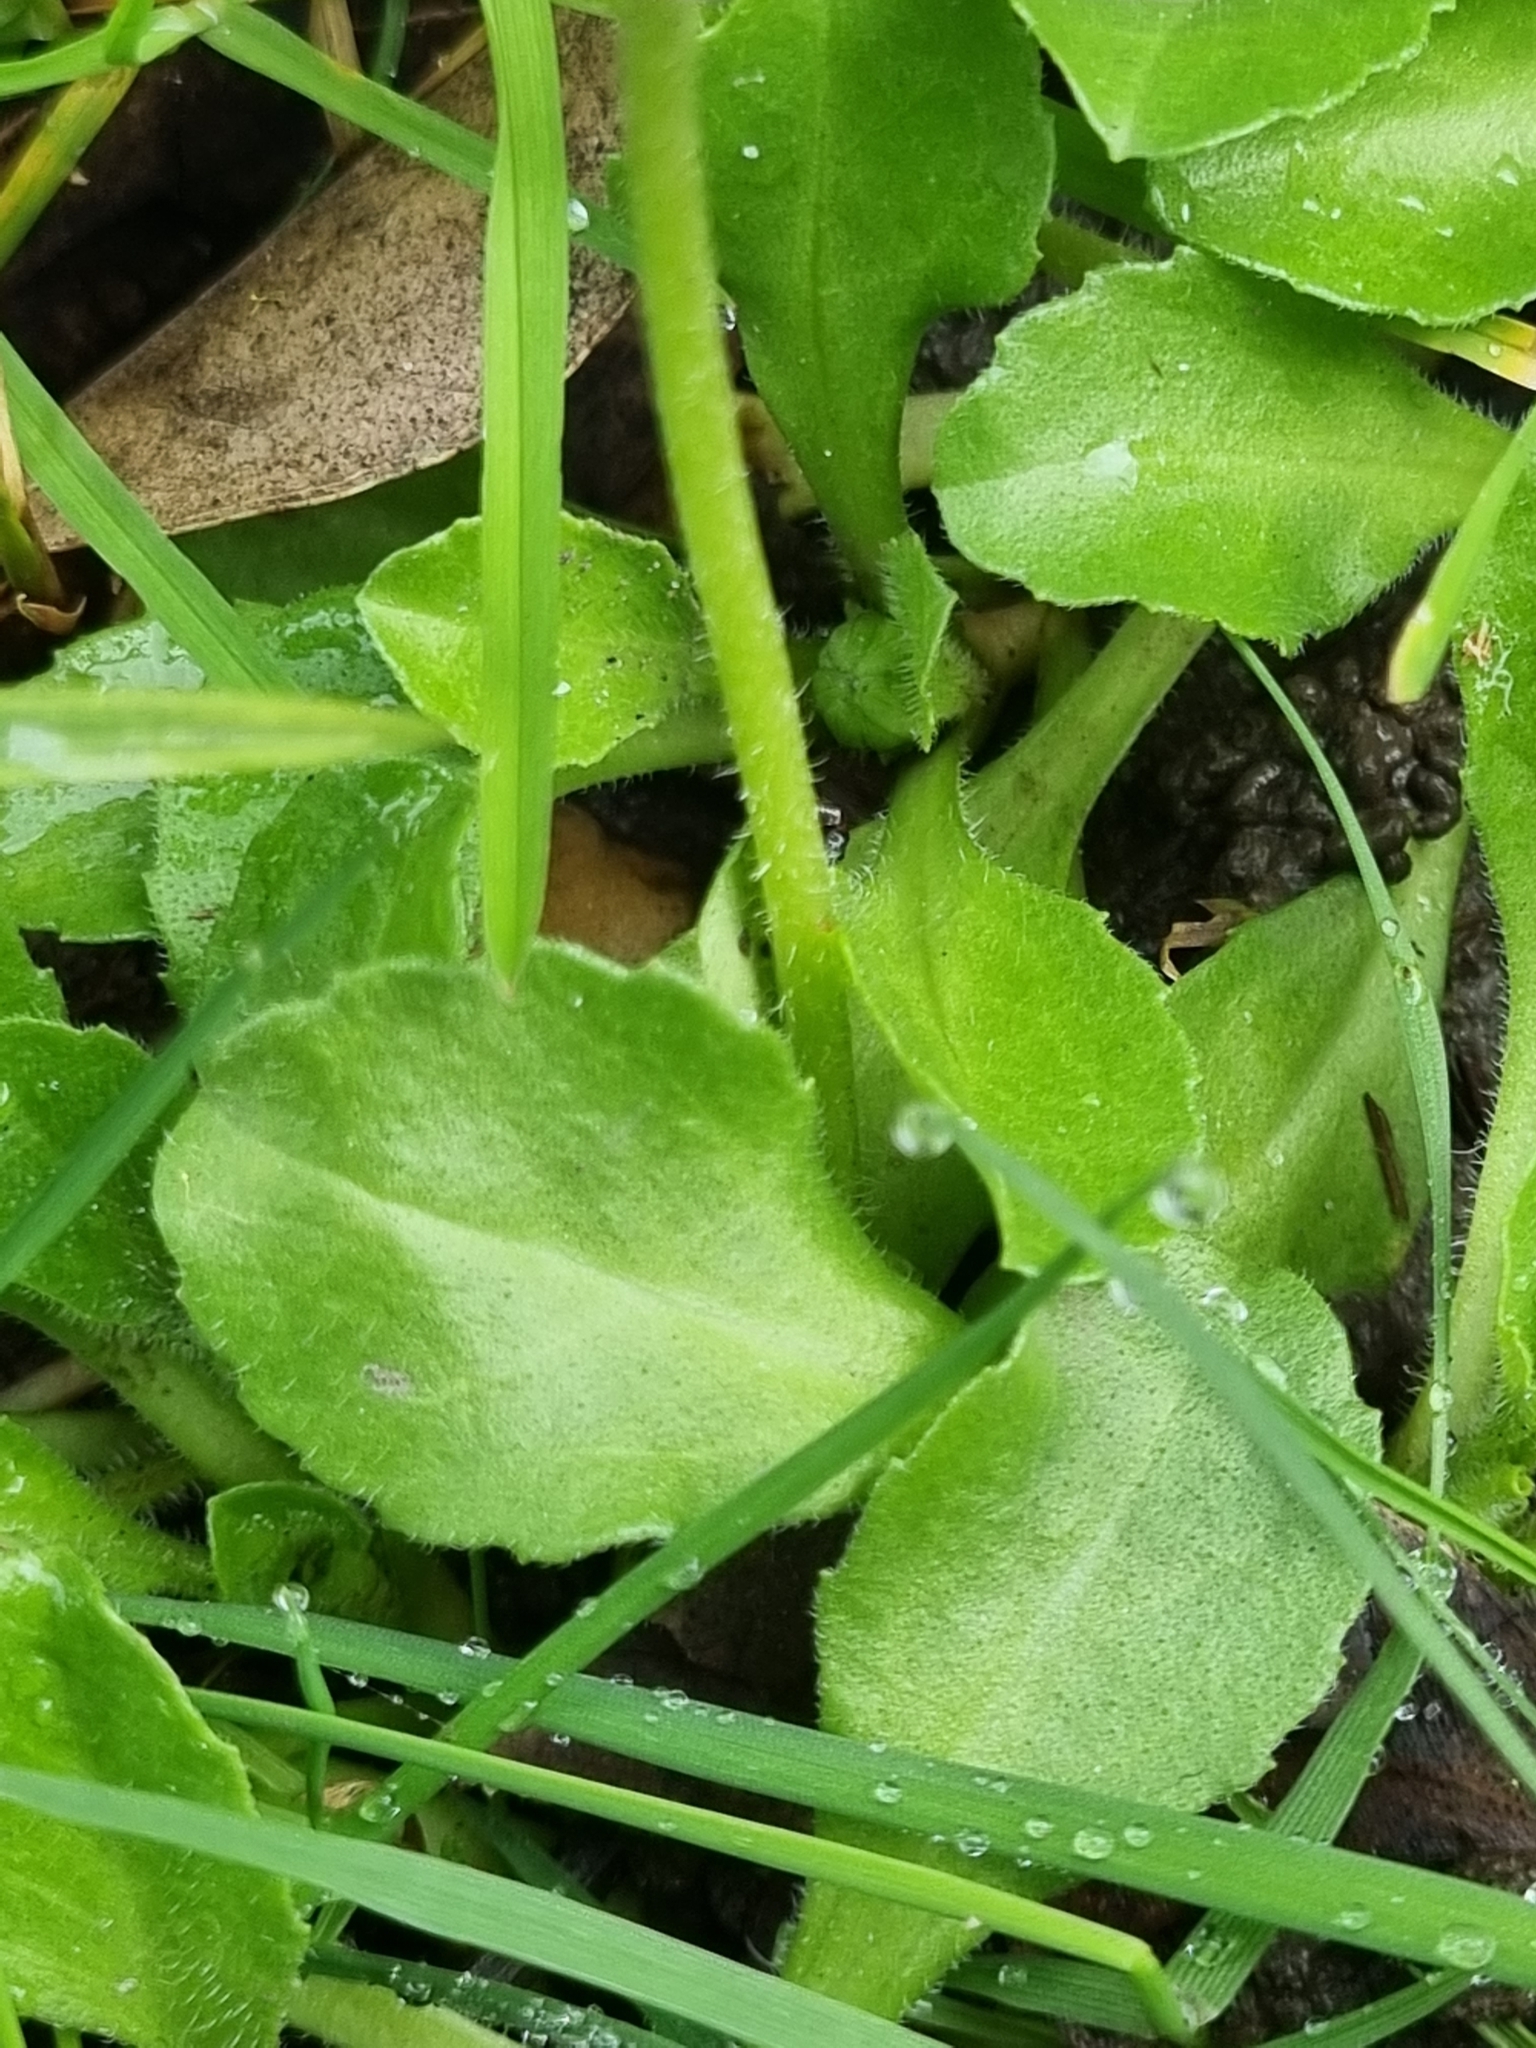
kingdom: Plantae
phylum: Tracheophyta
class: Magnoliopsida
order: Asterales
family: Asteraceae
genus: Bellis
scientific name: Bellis perennis
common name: Lawndaisy
